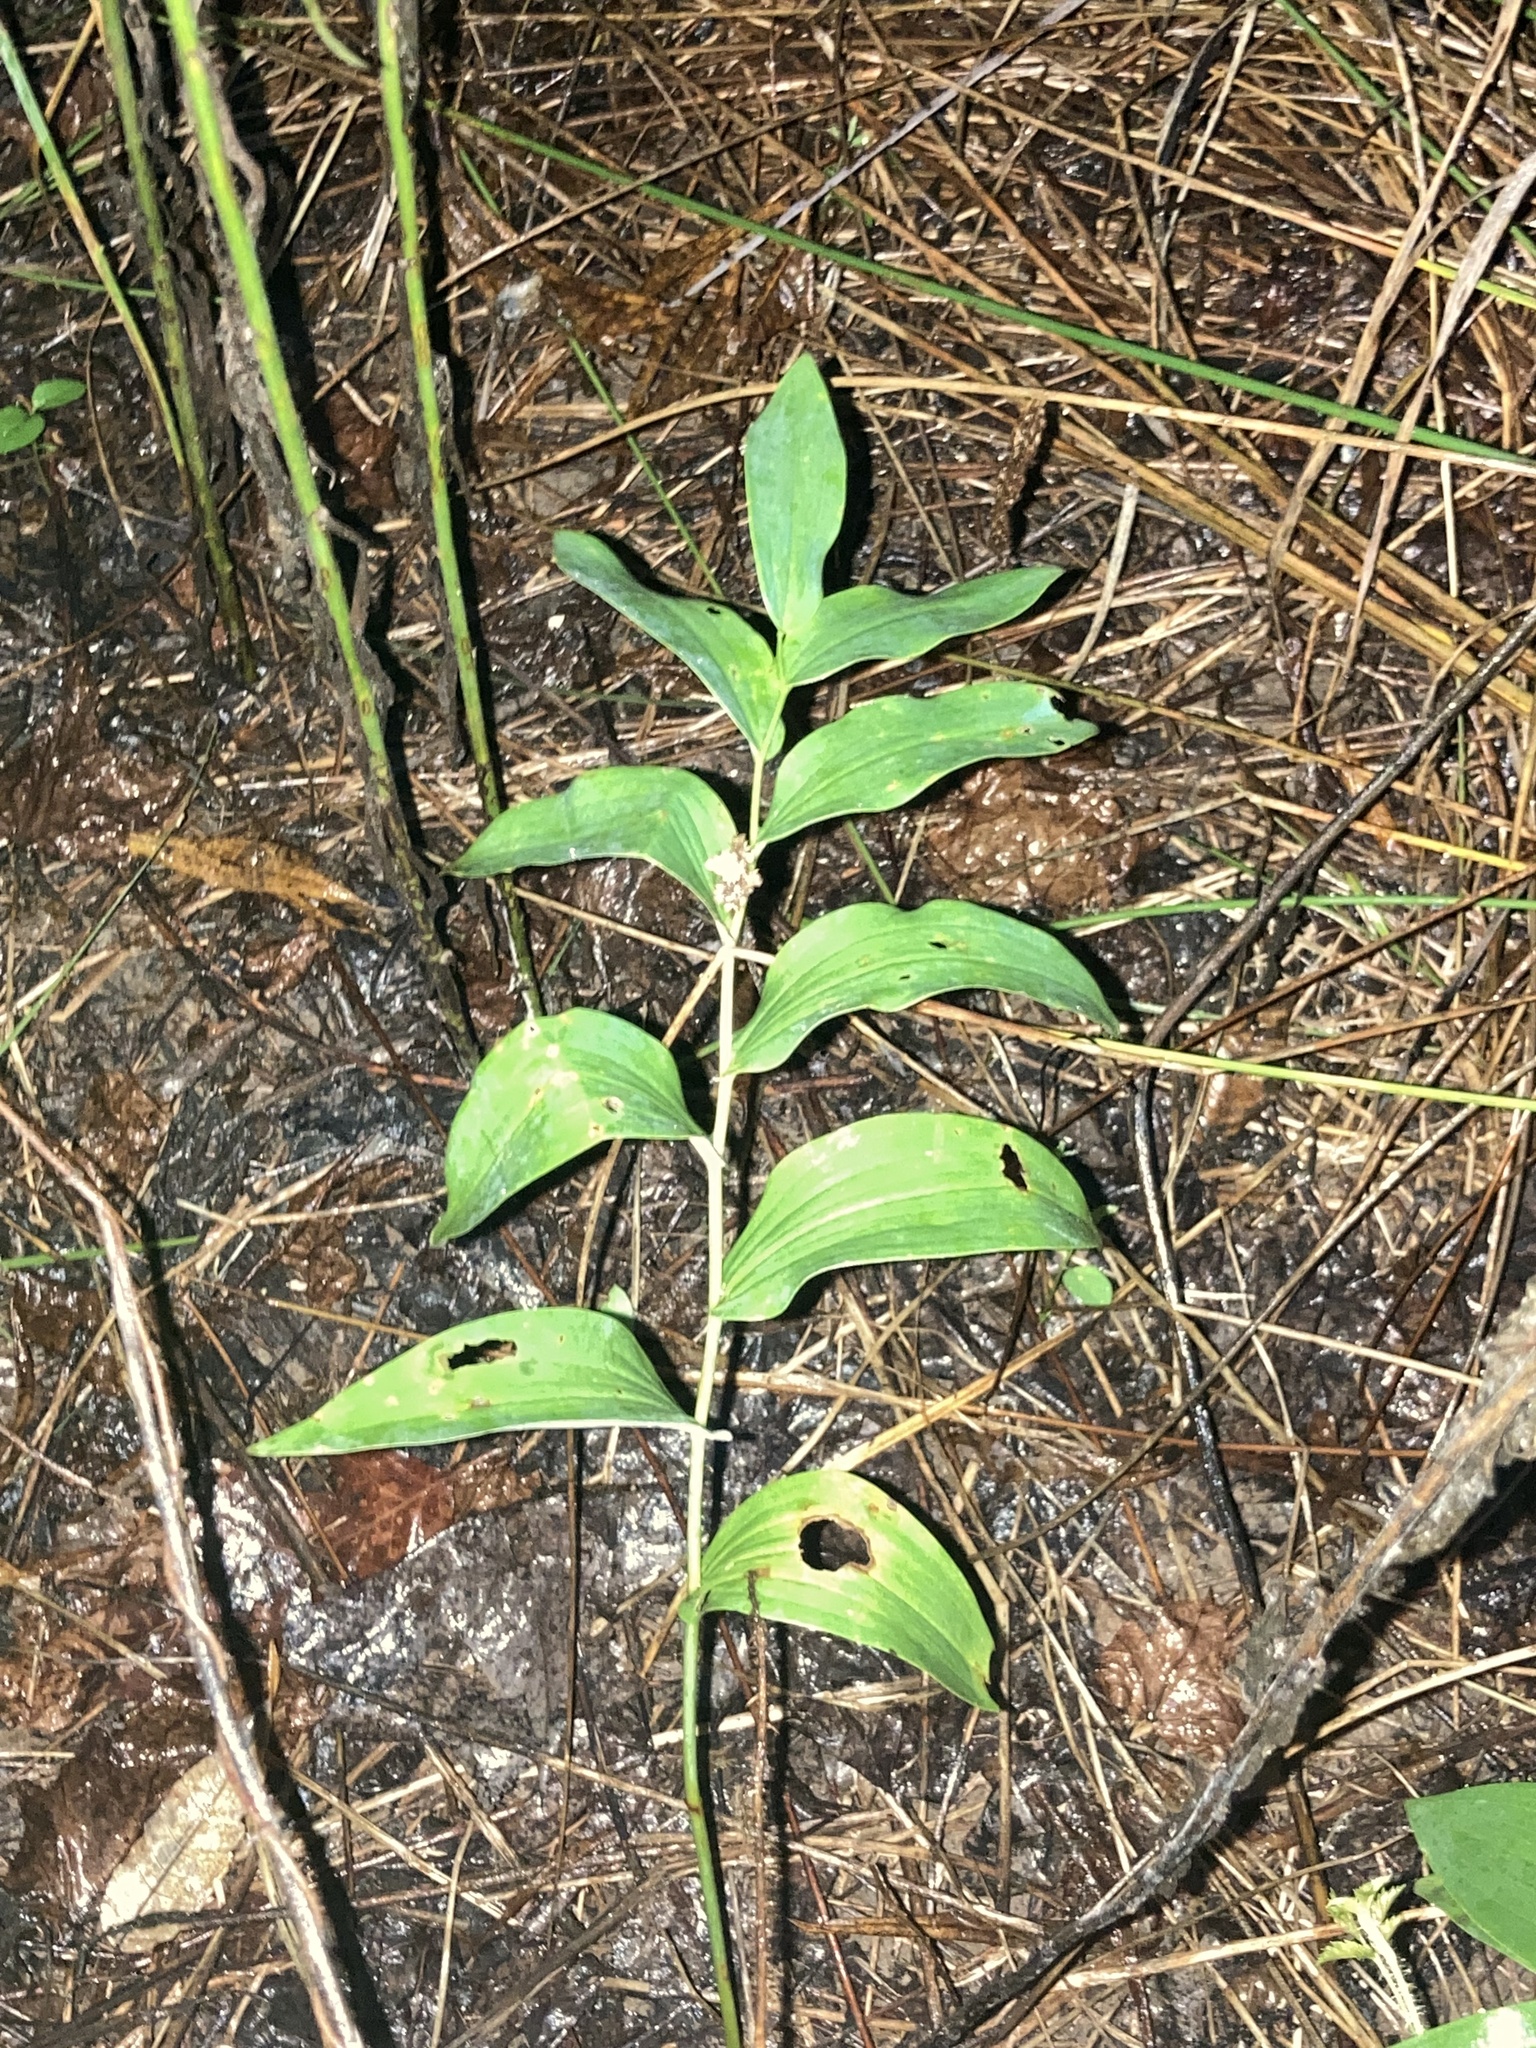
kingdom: Plantae
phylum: Tracheophyta
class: Liliopsida
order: Asparagales
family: Asparagaceae
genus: Polygonatum
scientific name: Polygonatum biflorum
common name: American solomon's-seal
